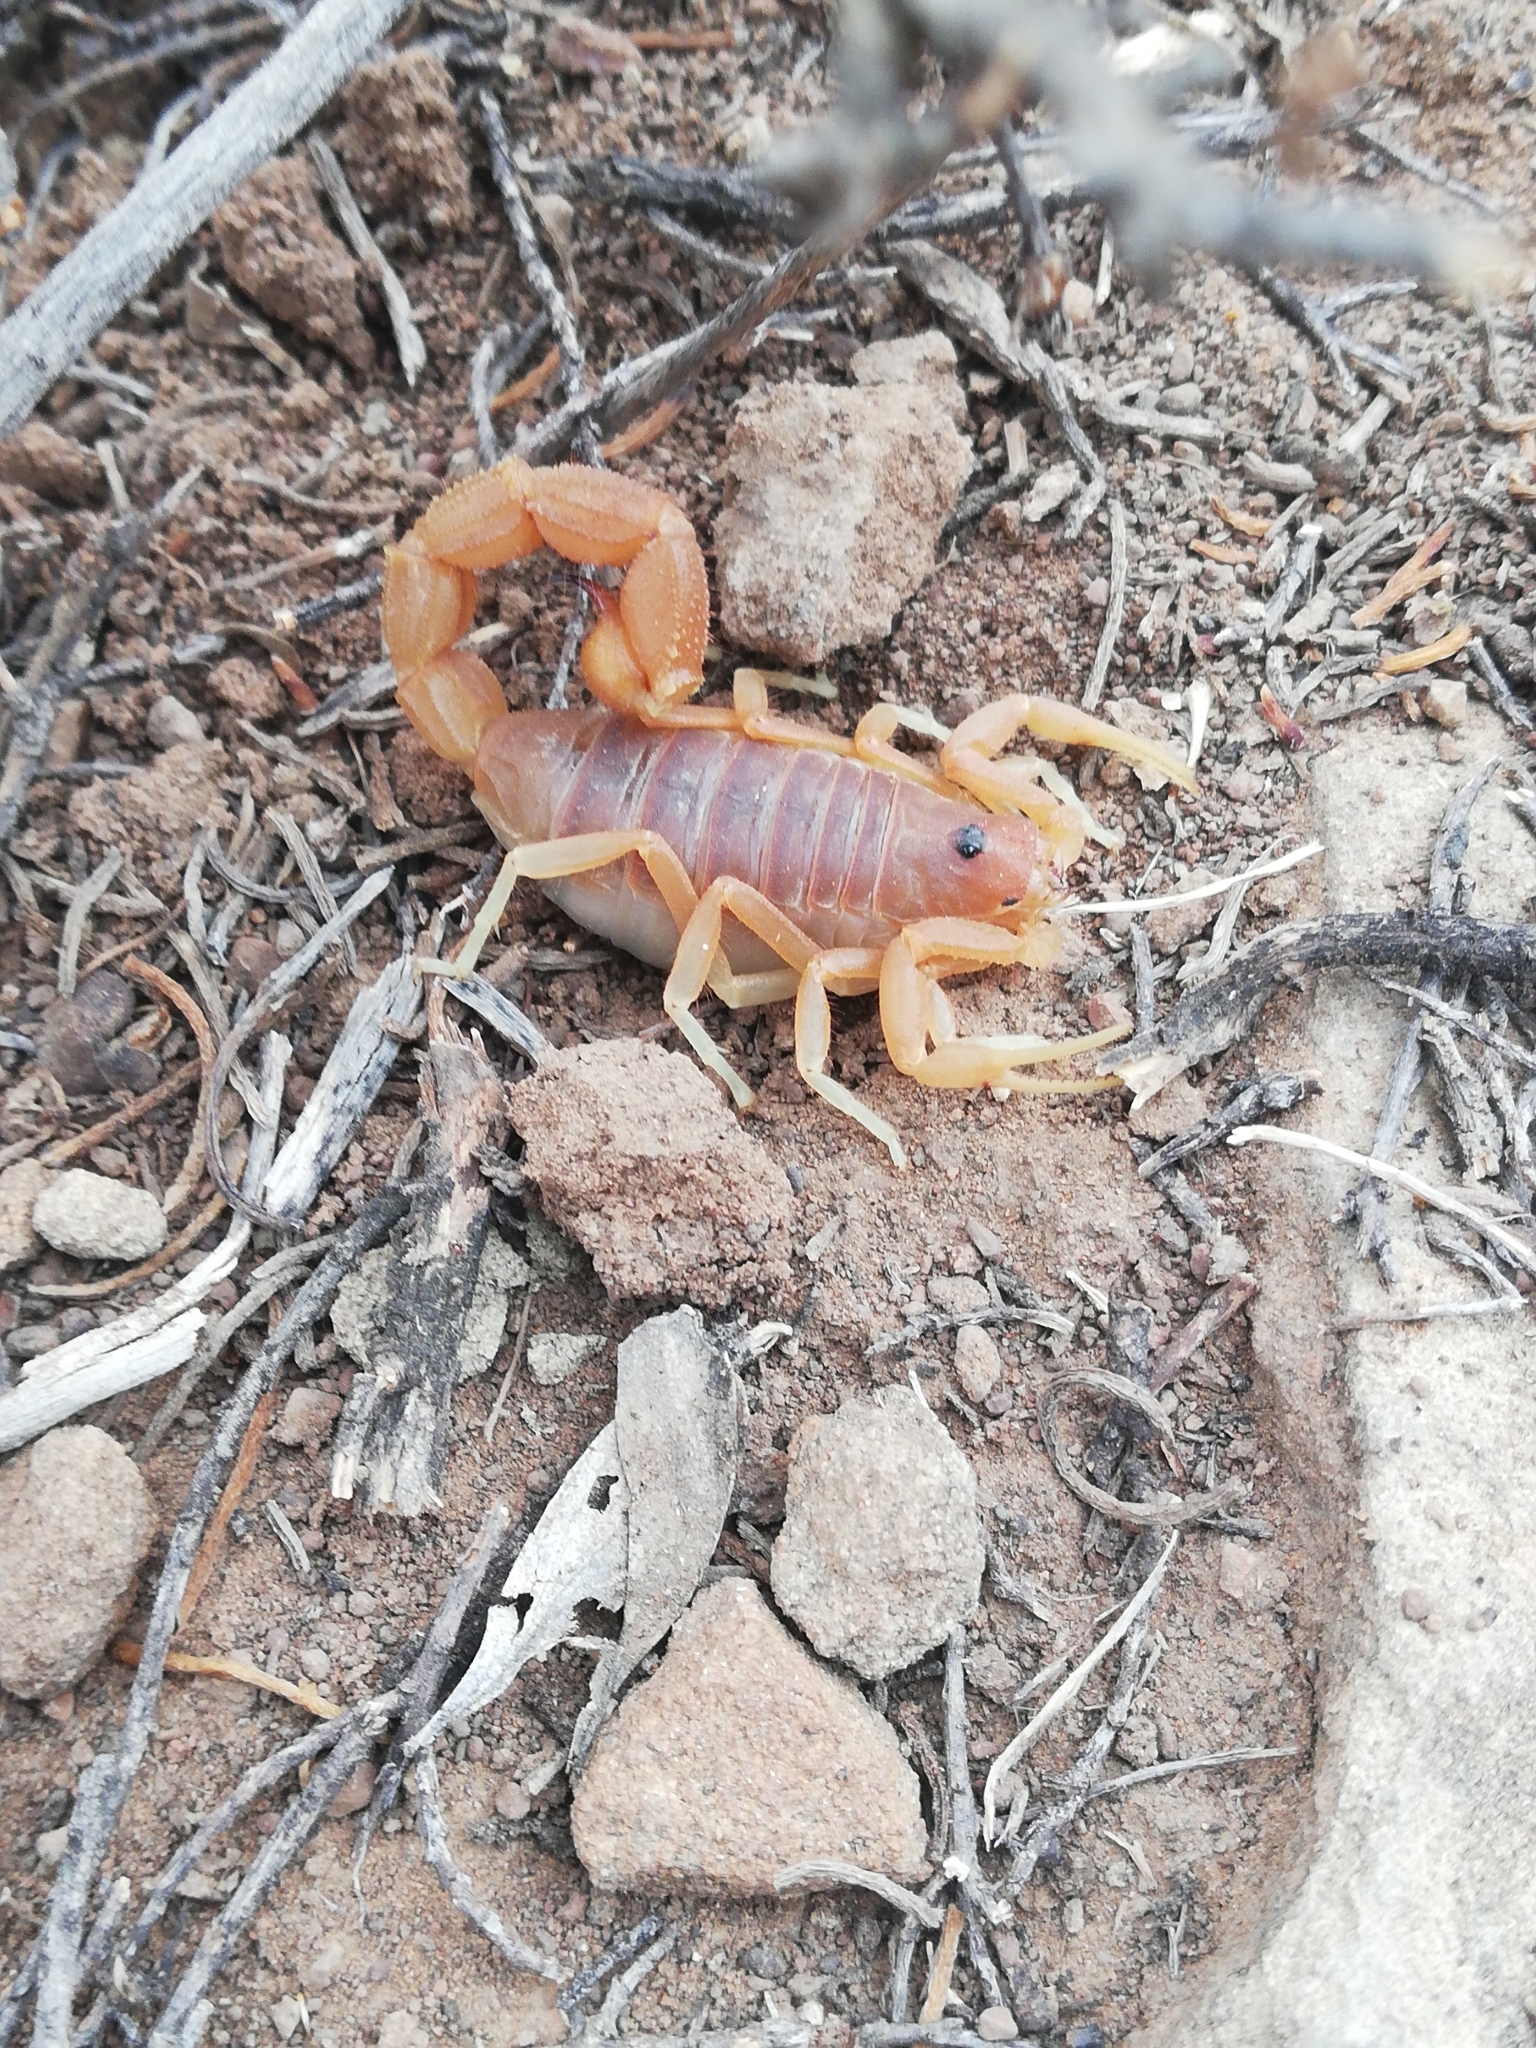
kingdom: Animalia
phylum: Arthropoda
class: Arachnida
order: Scorpiones
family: Buthidae
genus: Parabuthus
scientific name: Parabuthus planicauda
